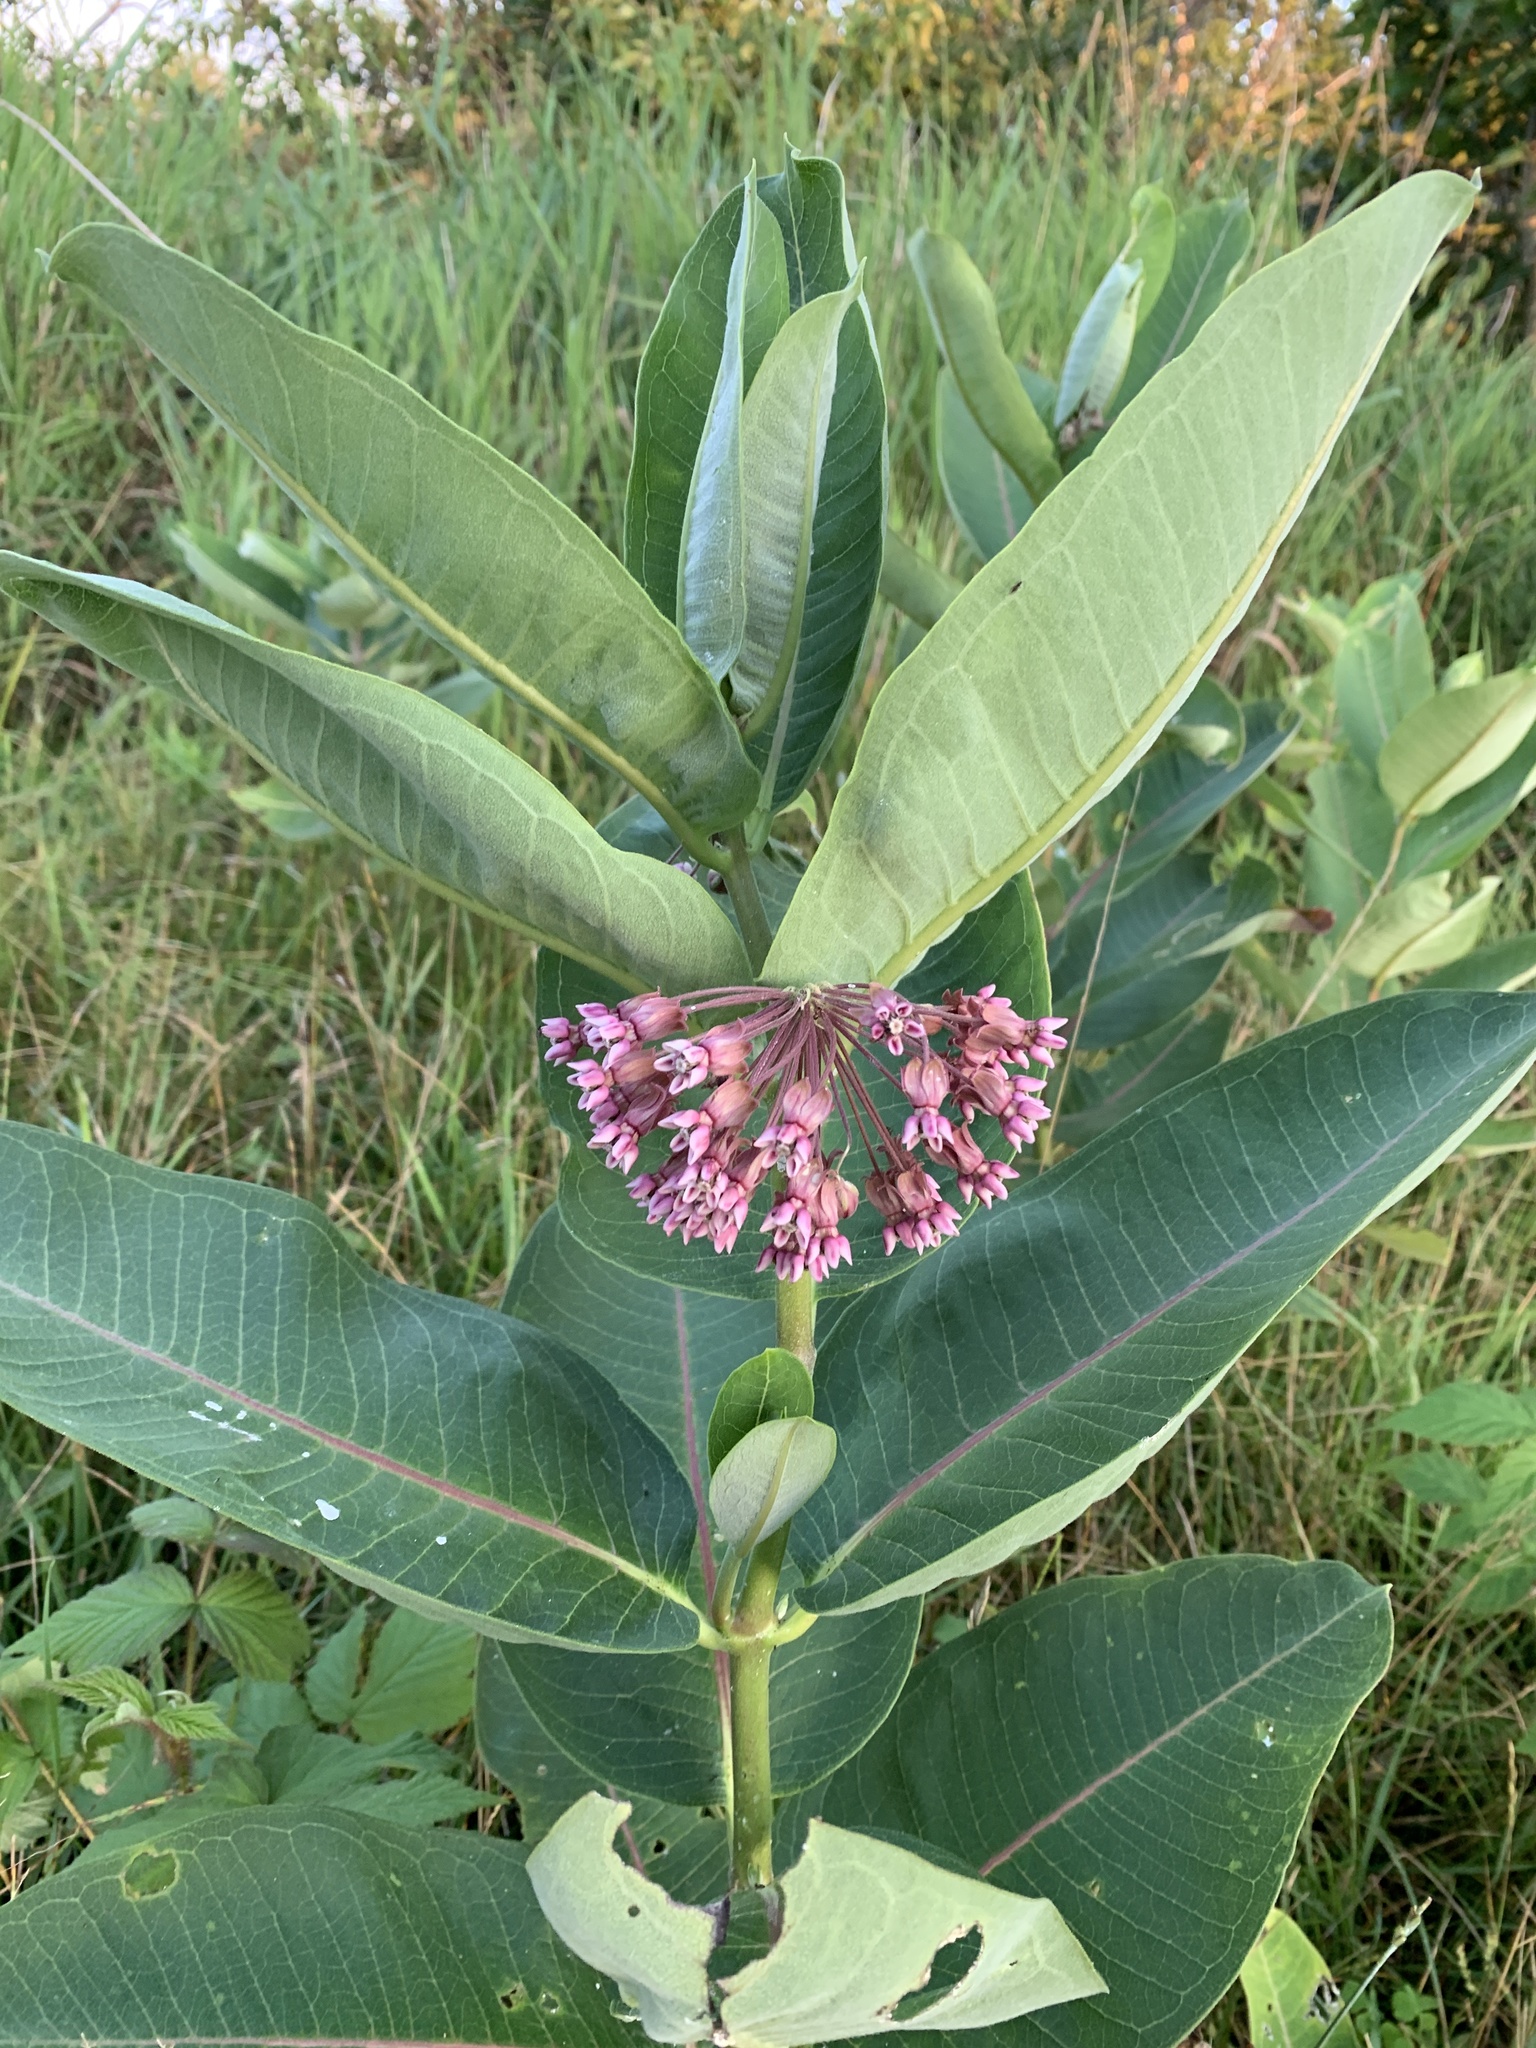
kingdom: Plantae
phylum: Tracheophyta
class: Magnoliopsida
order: Gentianales
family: Apocynaceae
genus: Asclepias
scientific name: Asclepias syriaca
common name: Common milkweed
